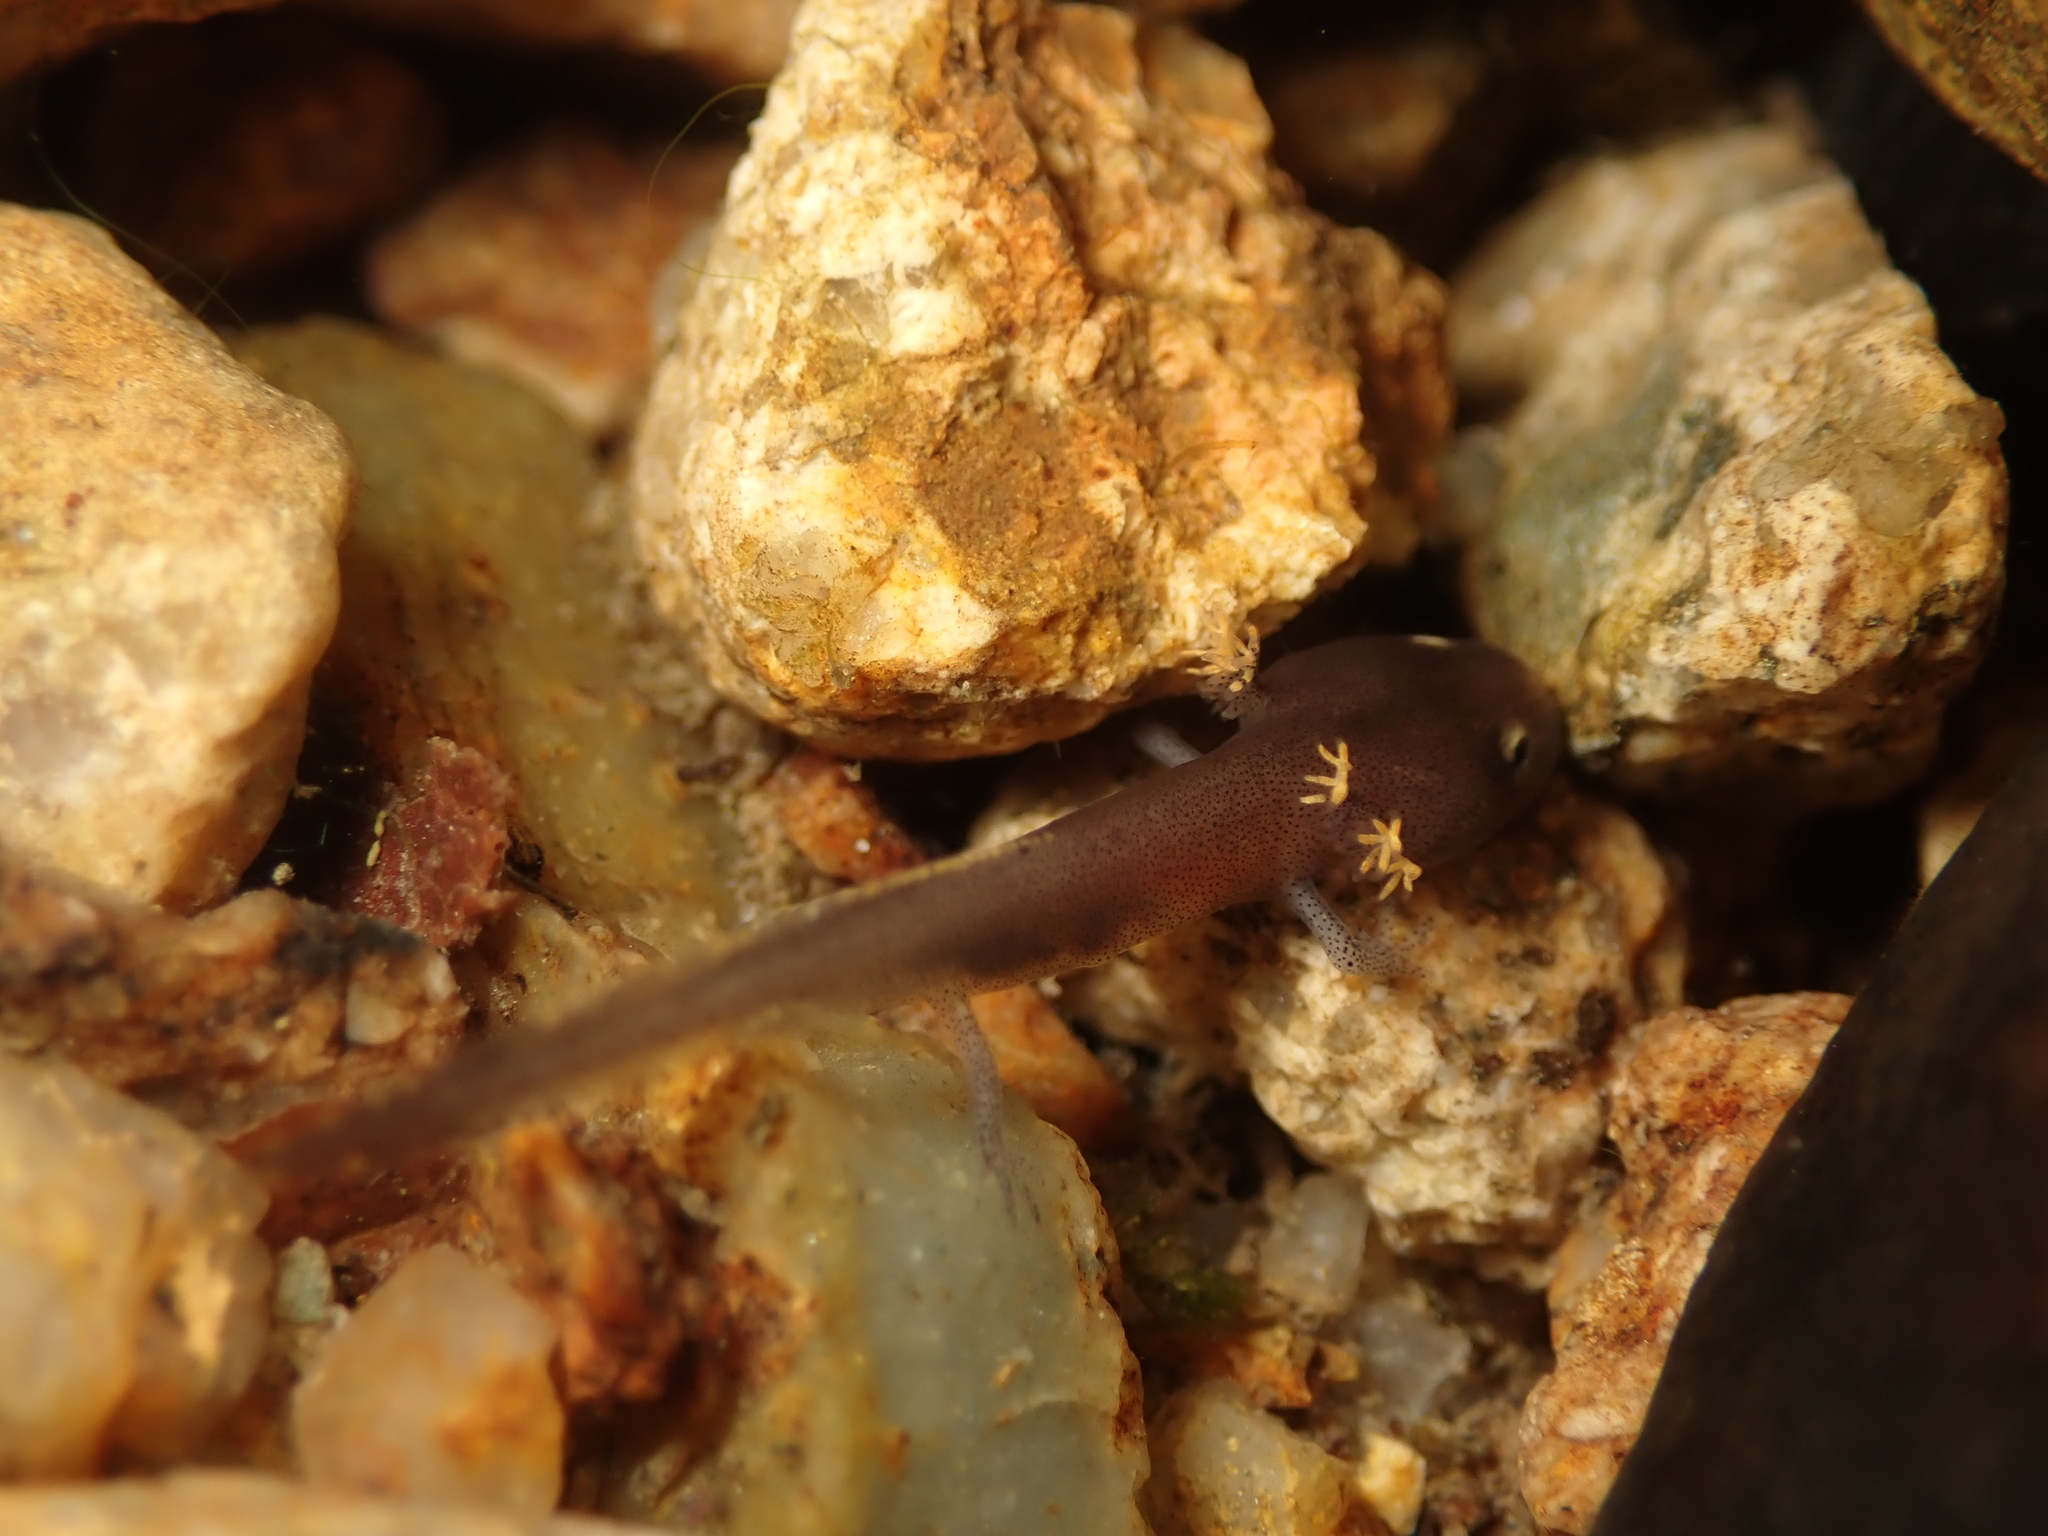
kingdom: Animalia
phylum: Chordata
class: Amphibia
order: Caudata
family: Salamandridae
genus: Paramesotriton
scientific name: Paramesotriton hongkongensis
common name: Hong kong warty newt
